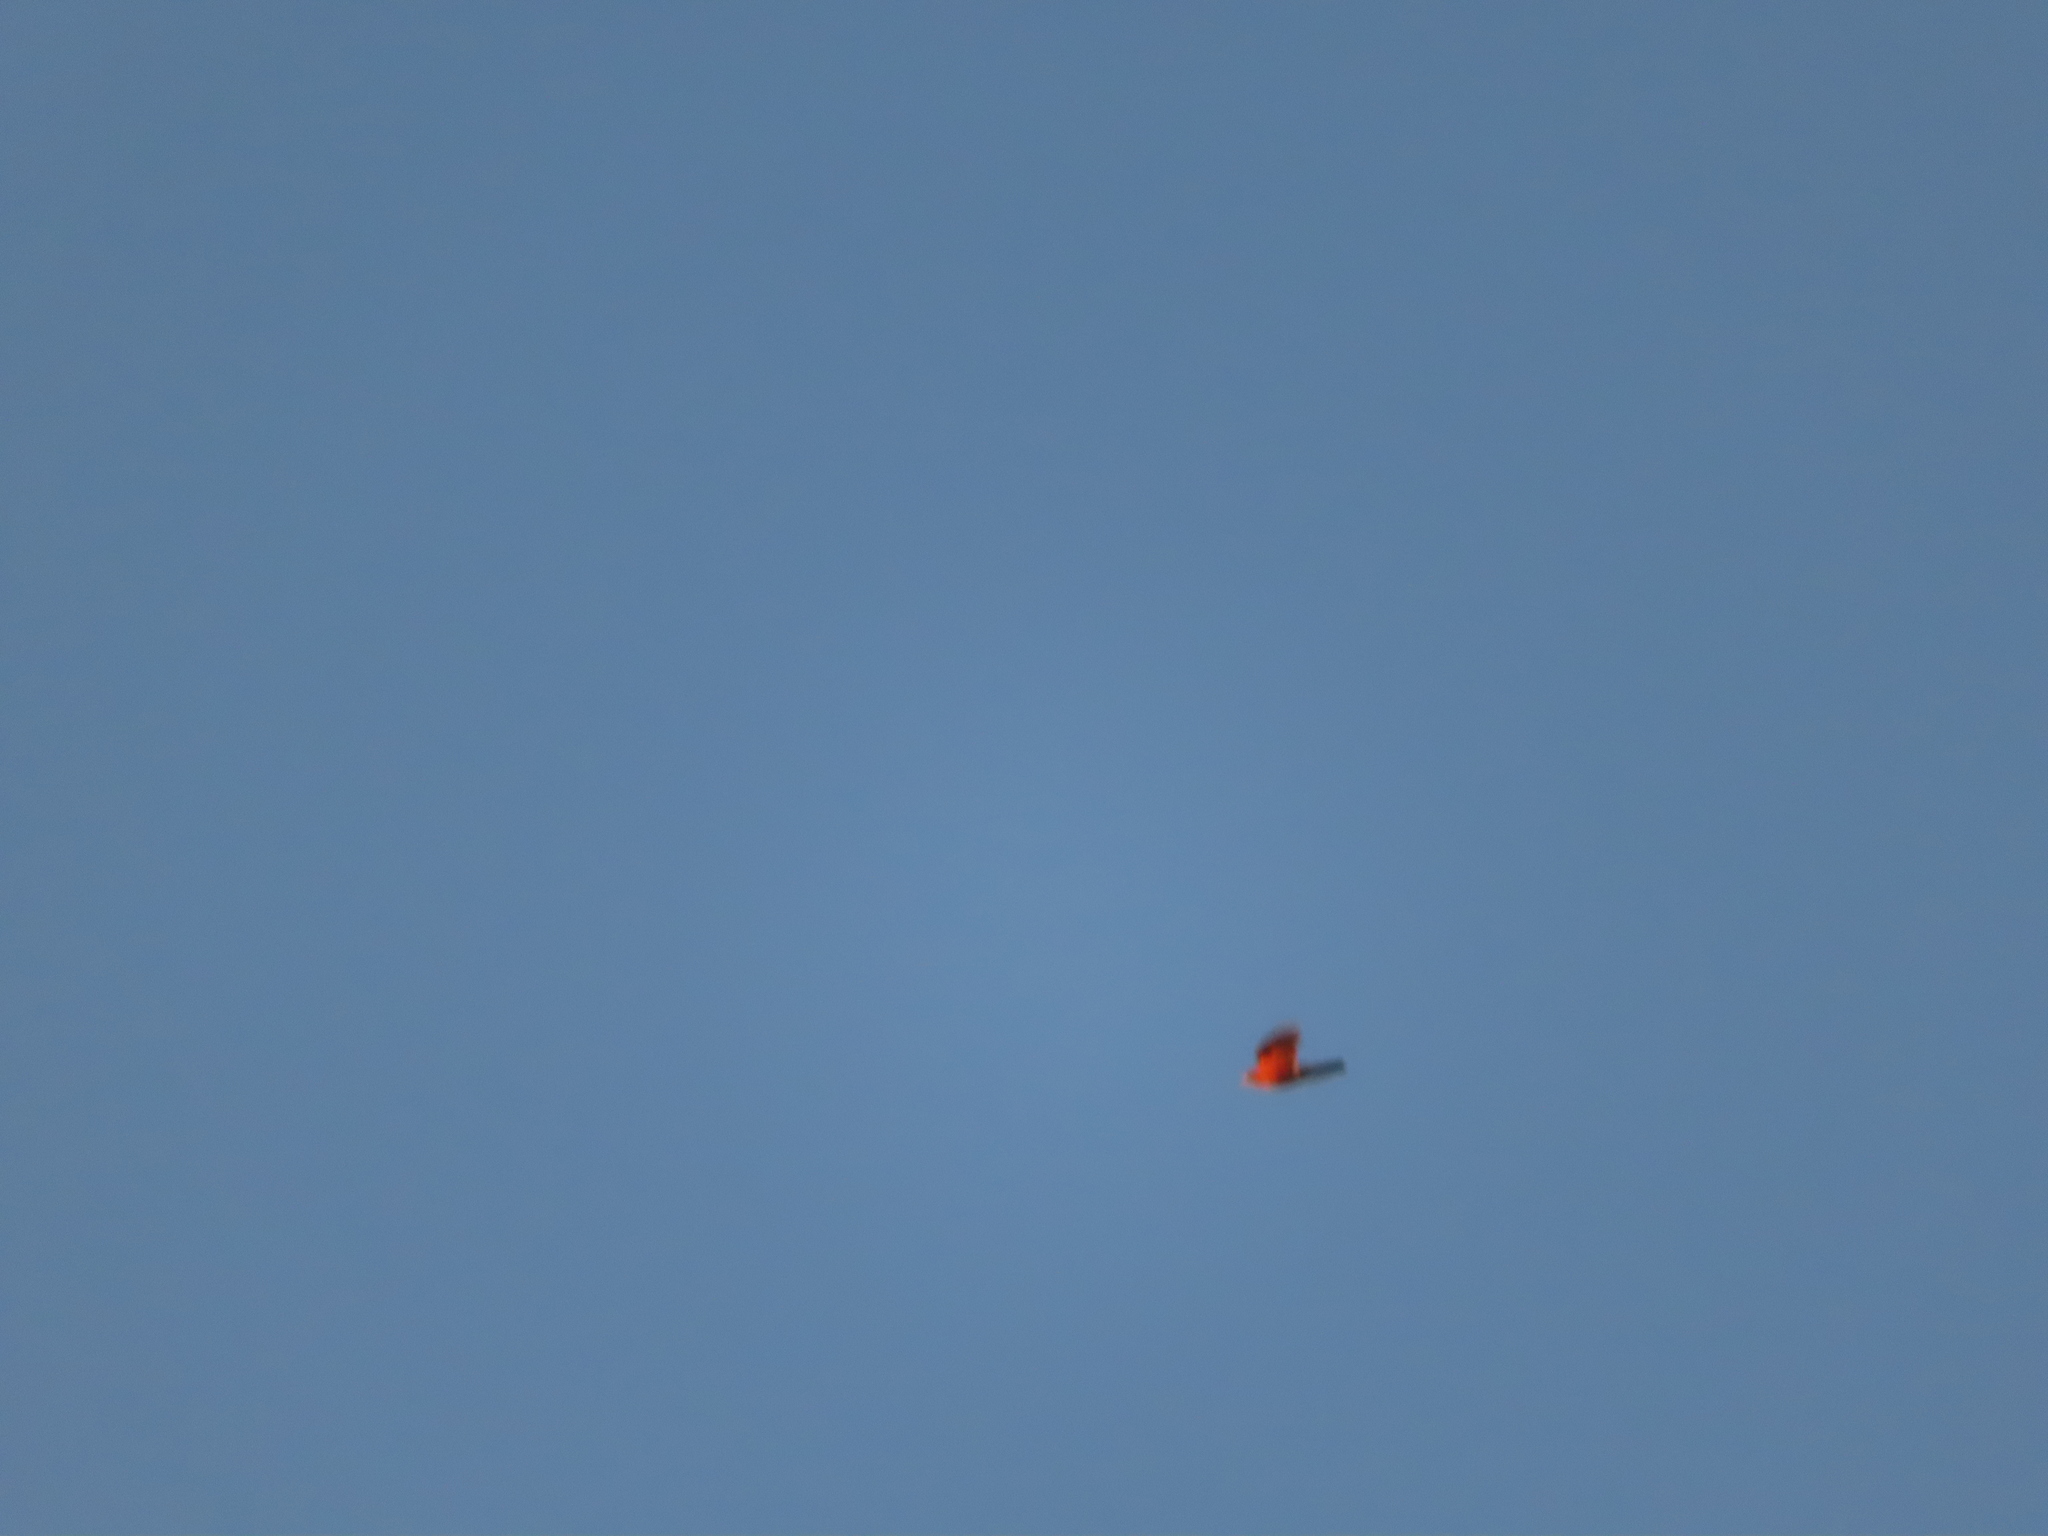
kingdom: Animalia
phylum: Chordata
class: Aves
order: Passeriformes
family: Turdidae
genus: Turdus
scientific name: Turdus migratorius
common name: American robin
